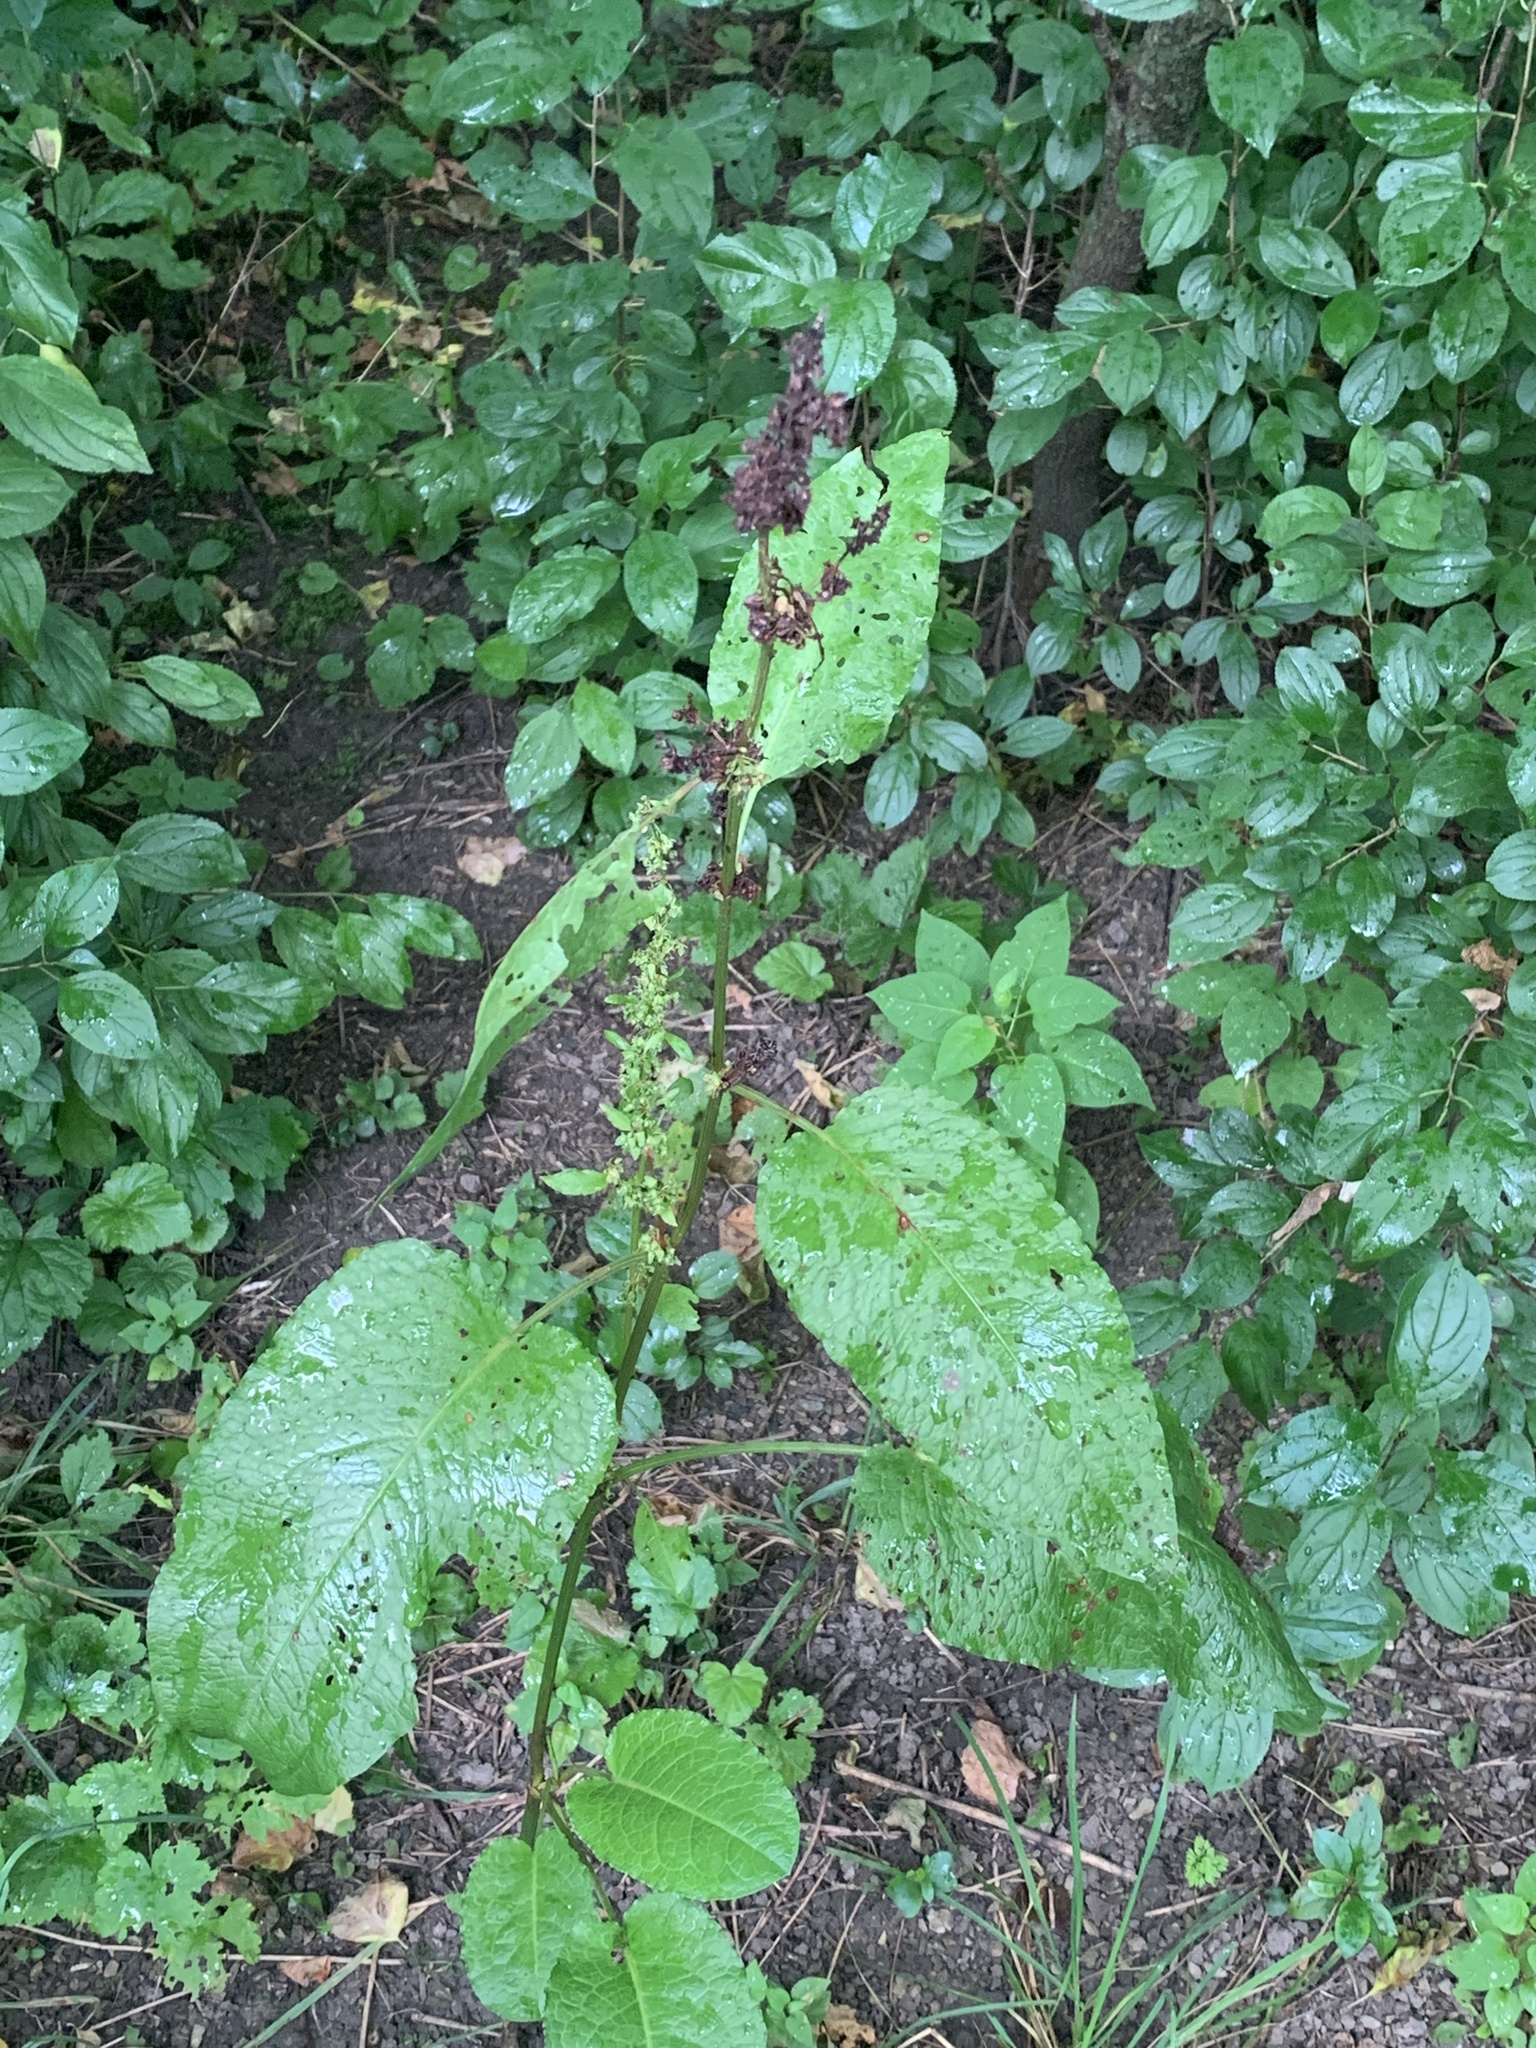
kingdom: Plantae
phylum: Tracheophyta
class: Magnoliopsida
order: Caryophyllales
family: Polygonaceae
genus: Rumex
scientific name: Rumex obtusifolius
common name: Bitter dock
